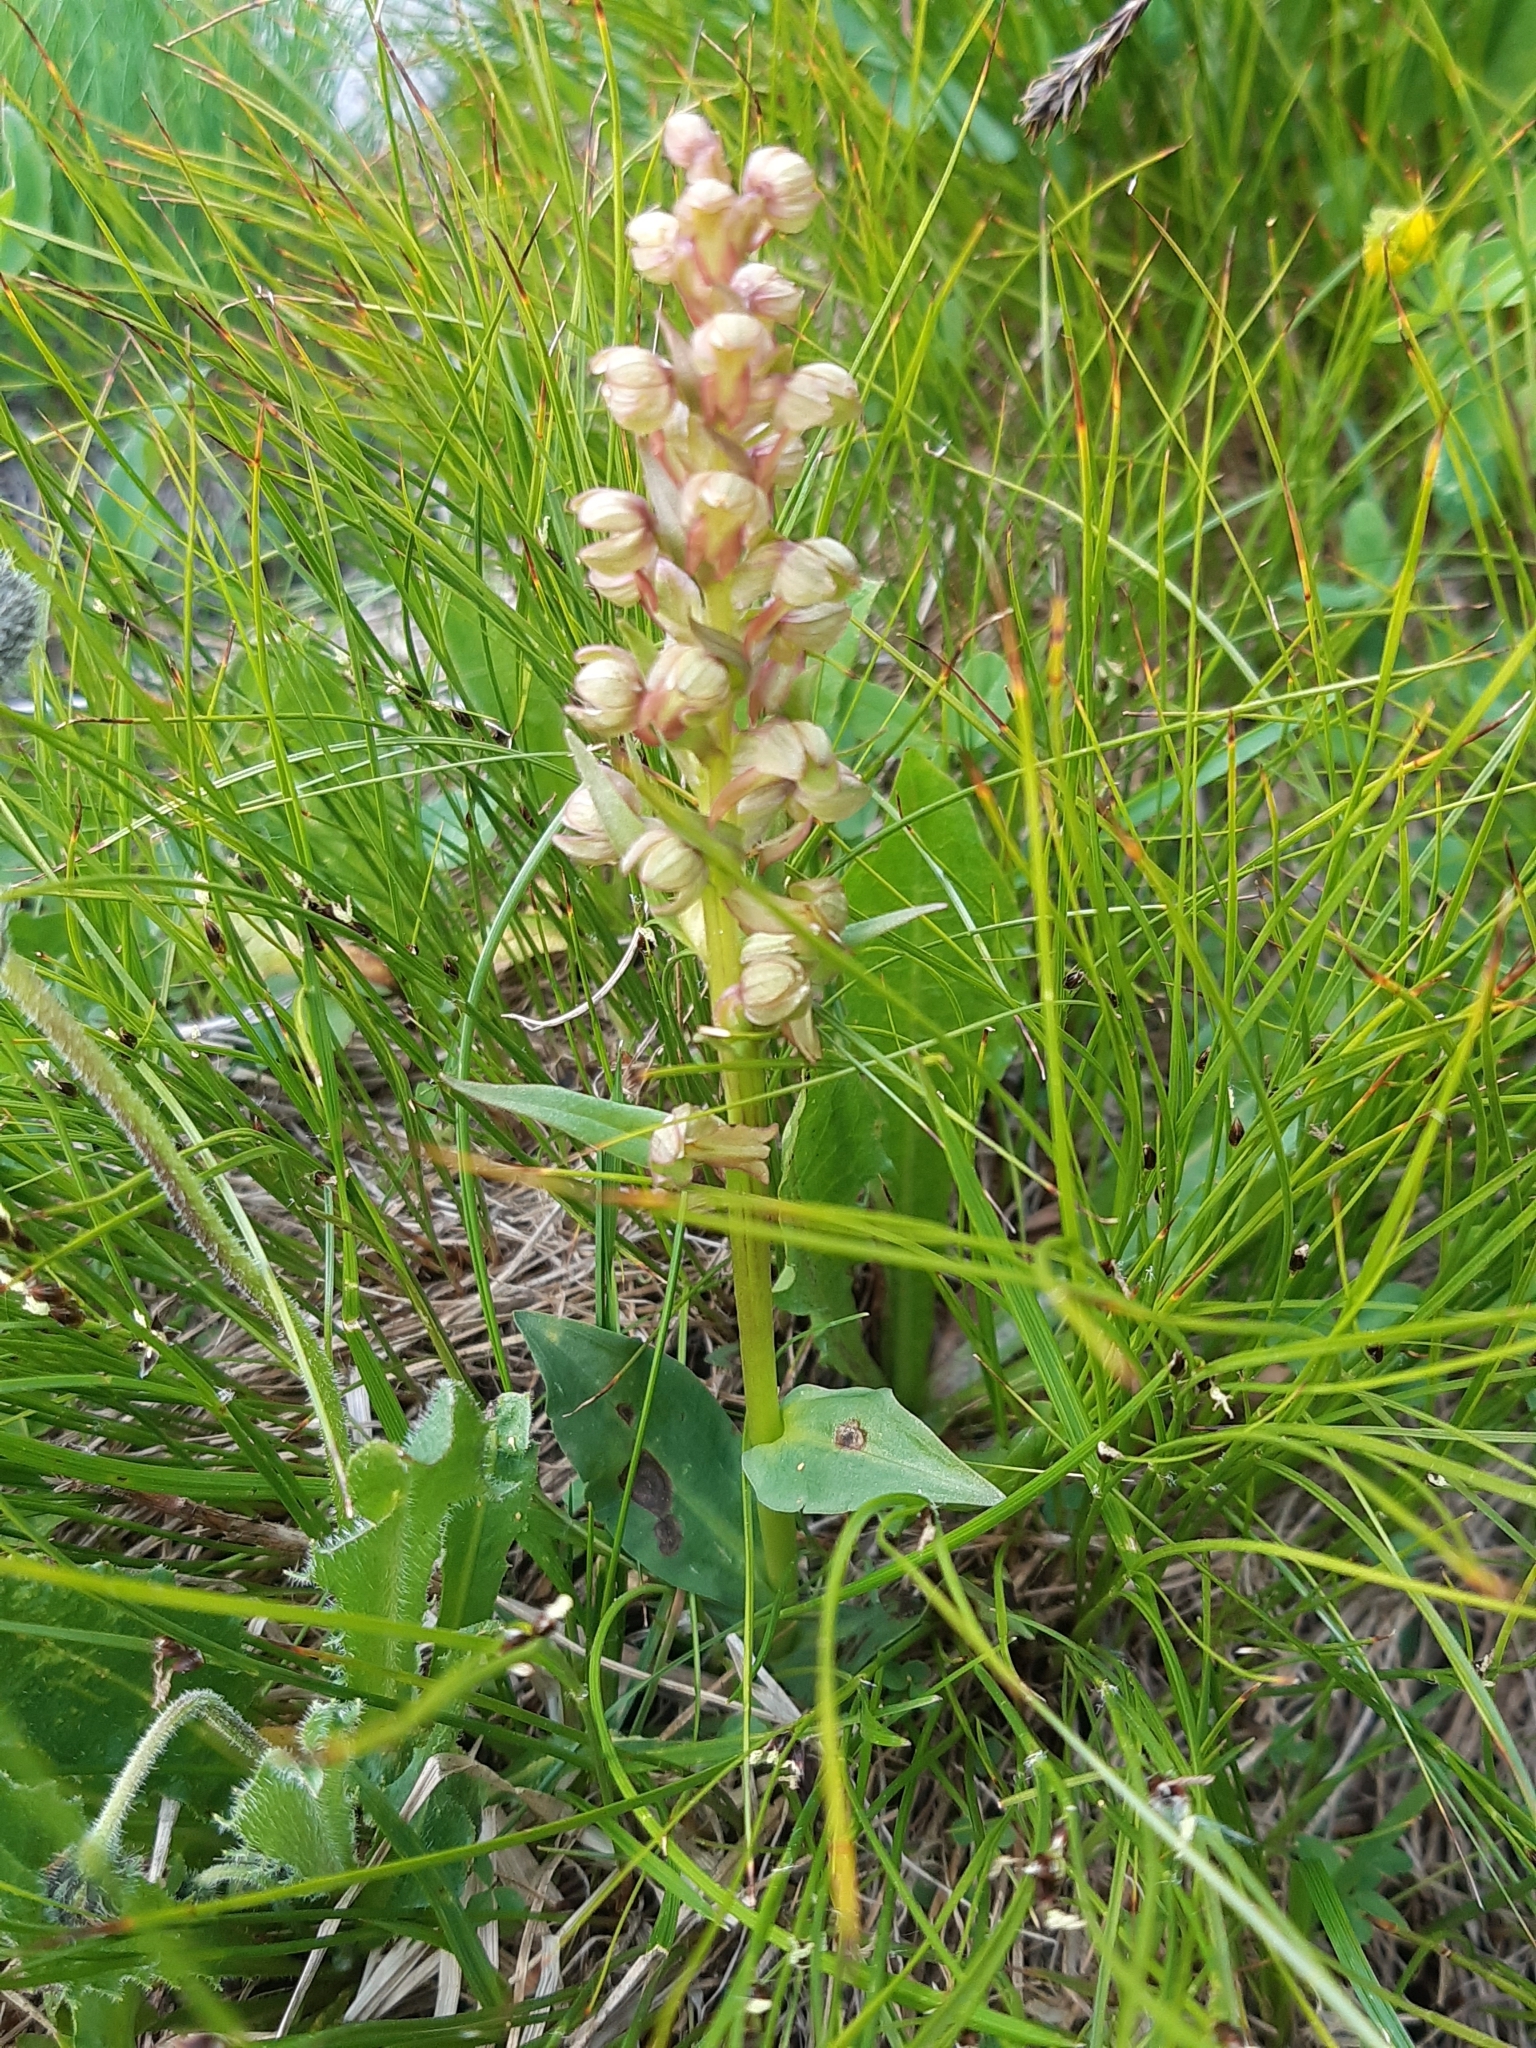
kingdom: Plantae
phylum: Tracheophyta
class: Liliopsida
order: Asparagales
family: Orchidaceae
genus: Dactylorhiza
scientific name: Dactylorhiza viridis
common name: Longbract frog orchid
